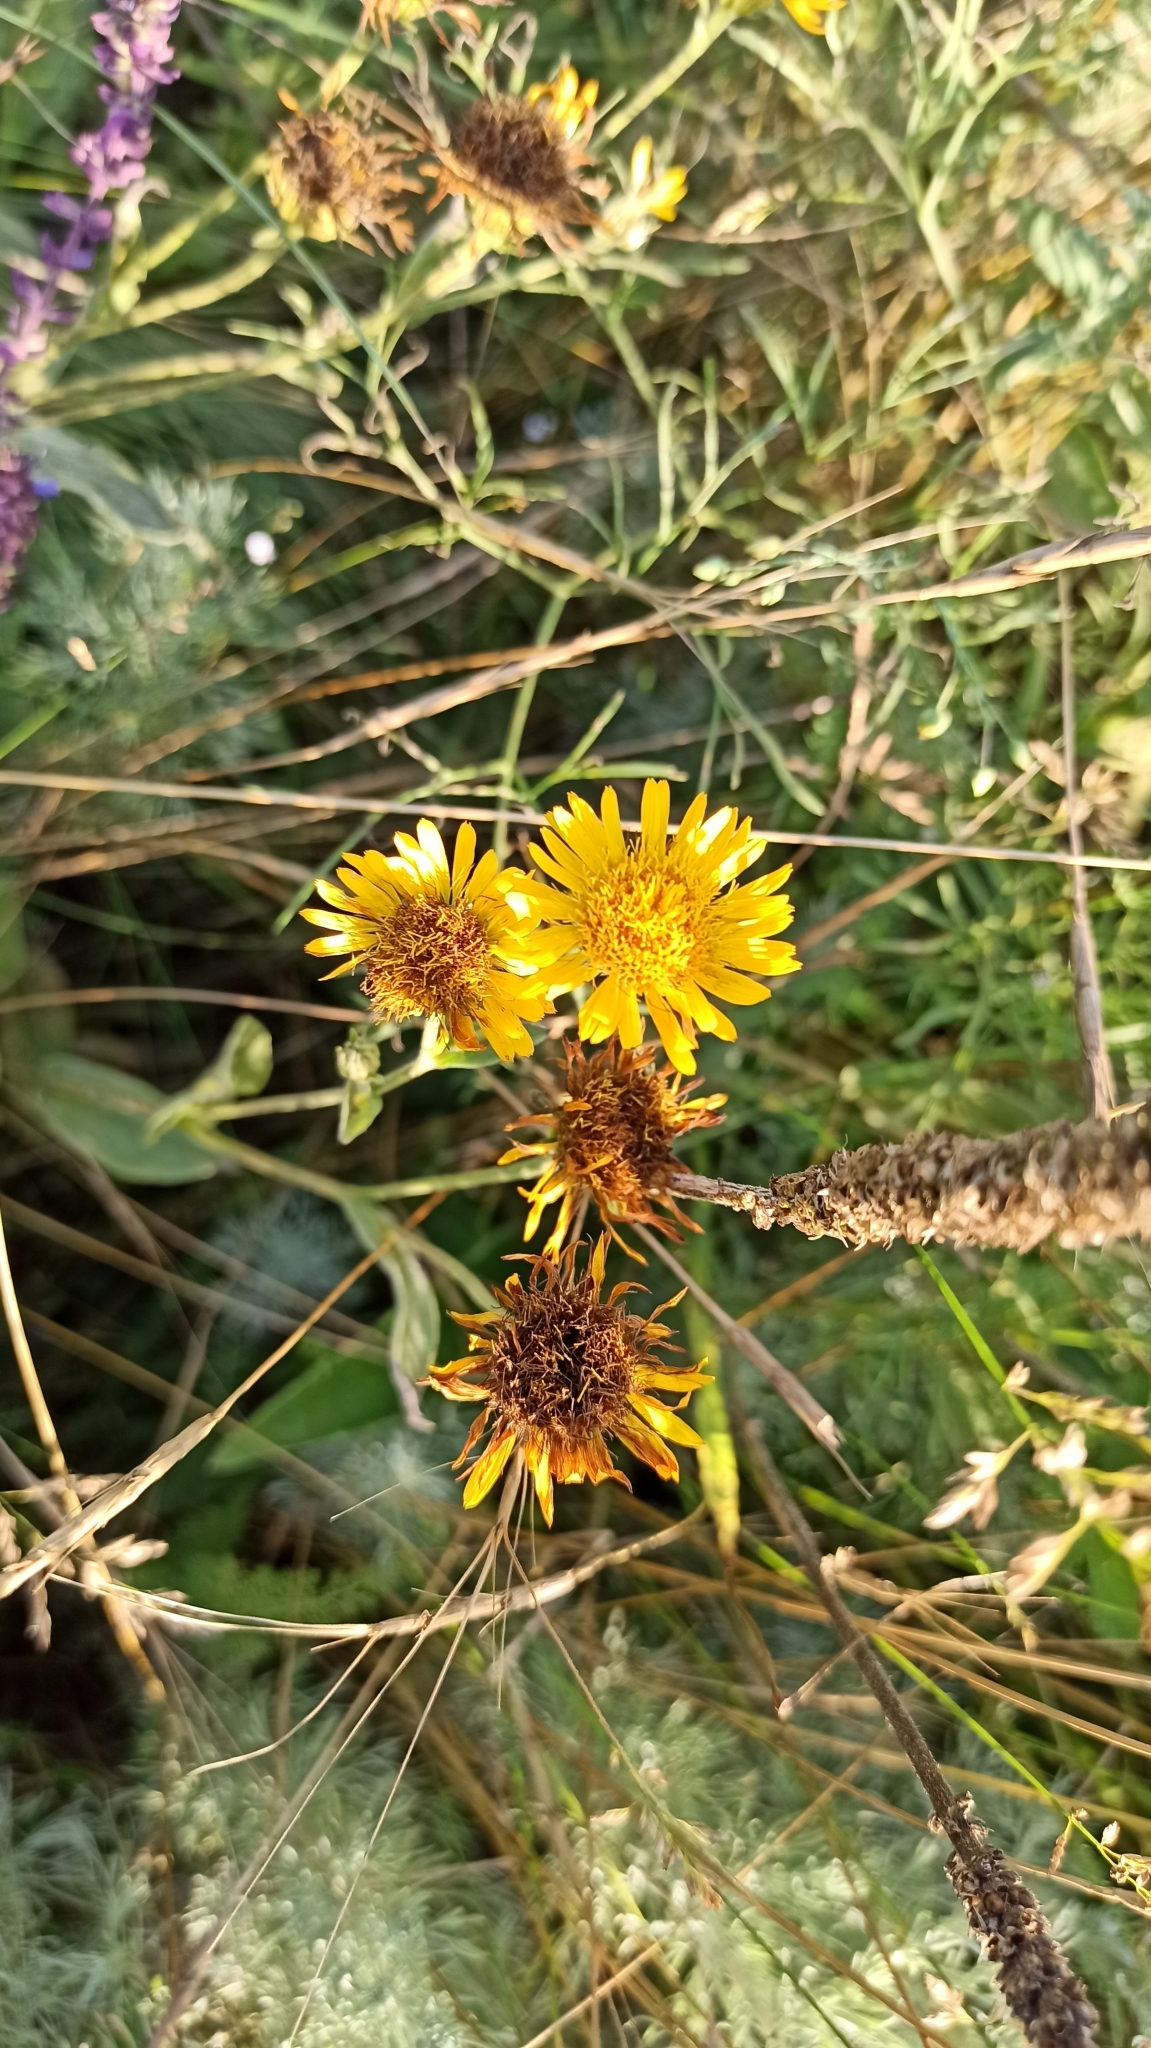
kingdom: Plantae
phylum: Tracheophyta
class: Magnoliopsida
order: Asterales
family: Asteraceae
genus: Pentanema
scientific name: Pentanema oculus-christi
